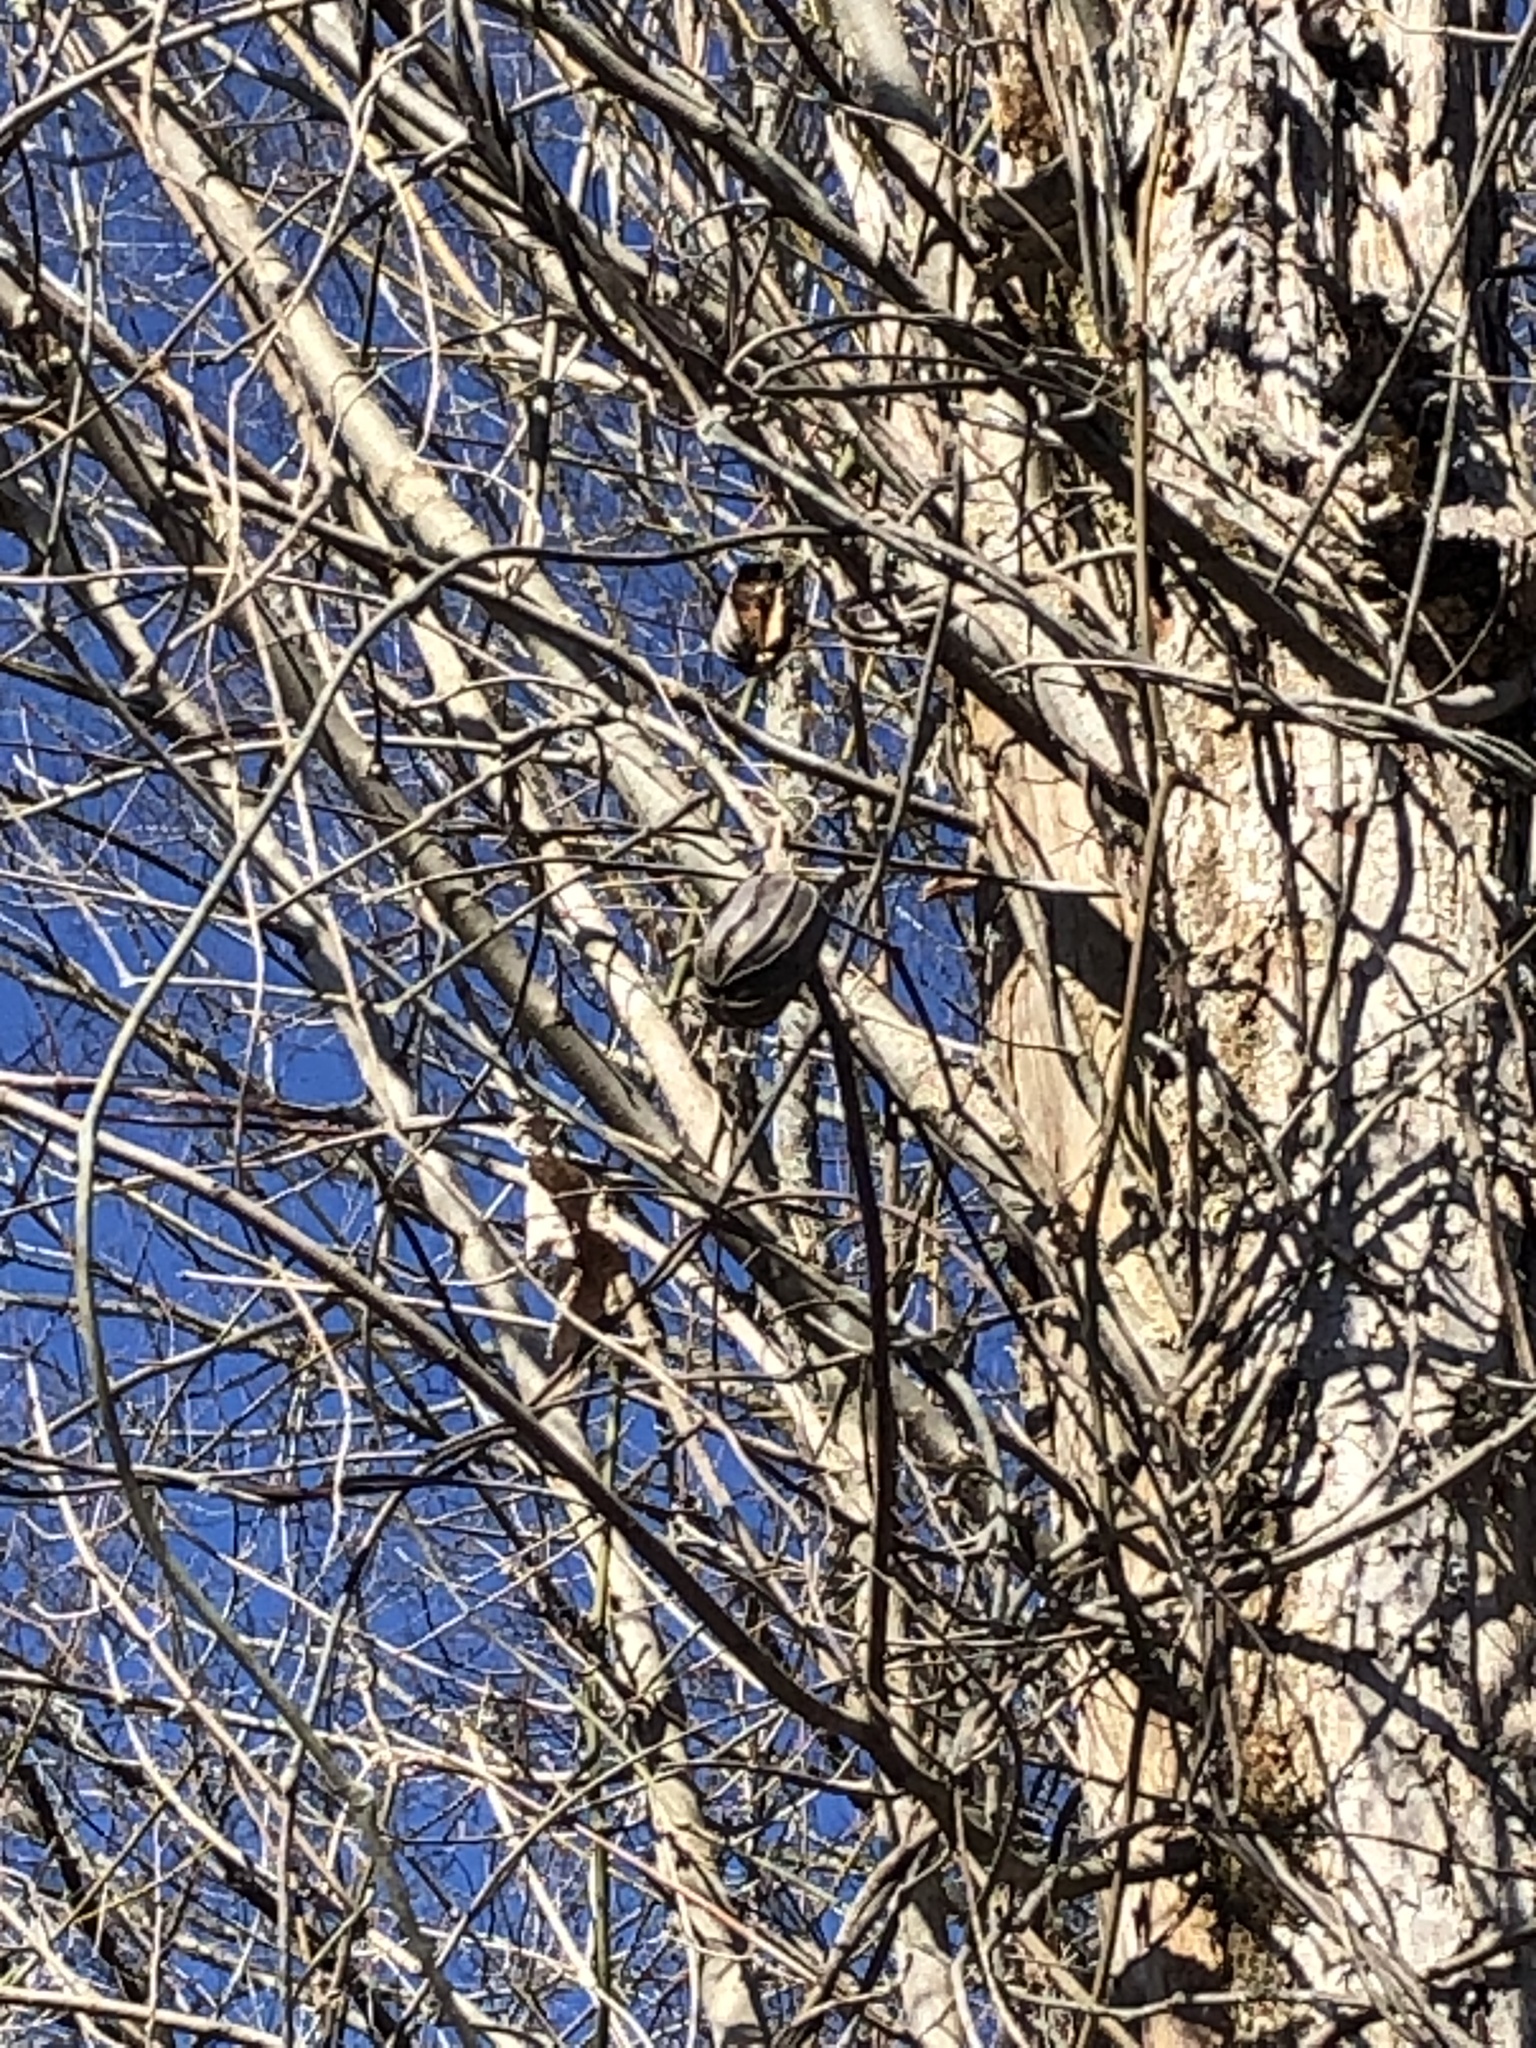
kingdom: Plantae
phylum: Tracheophyta
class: Magnoliopsida
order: Piperales
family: Aristolochiaceae
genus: Isotrema
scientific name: Isotrema tomentosum
